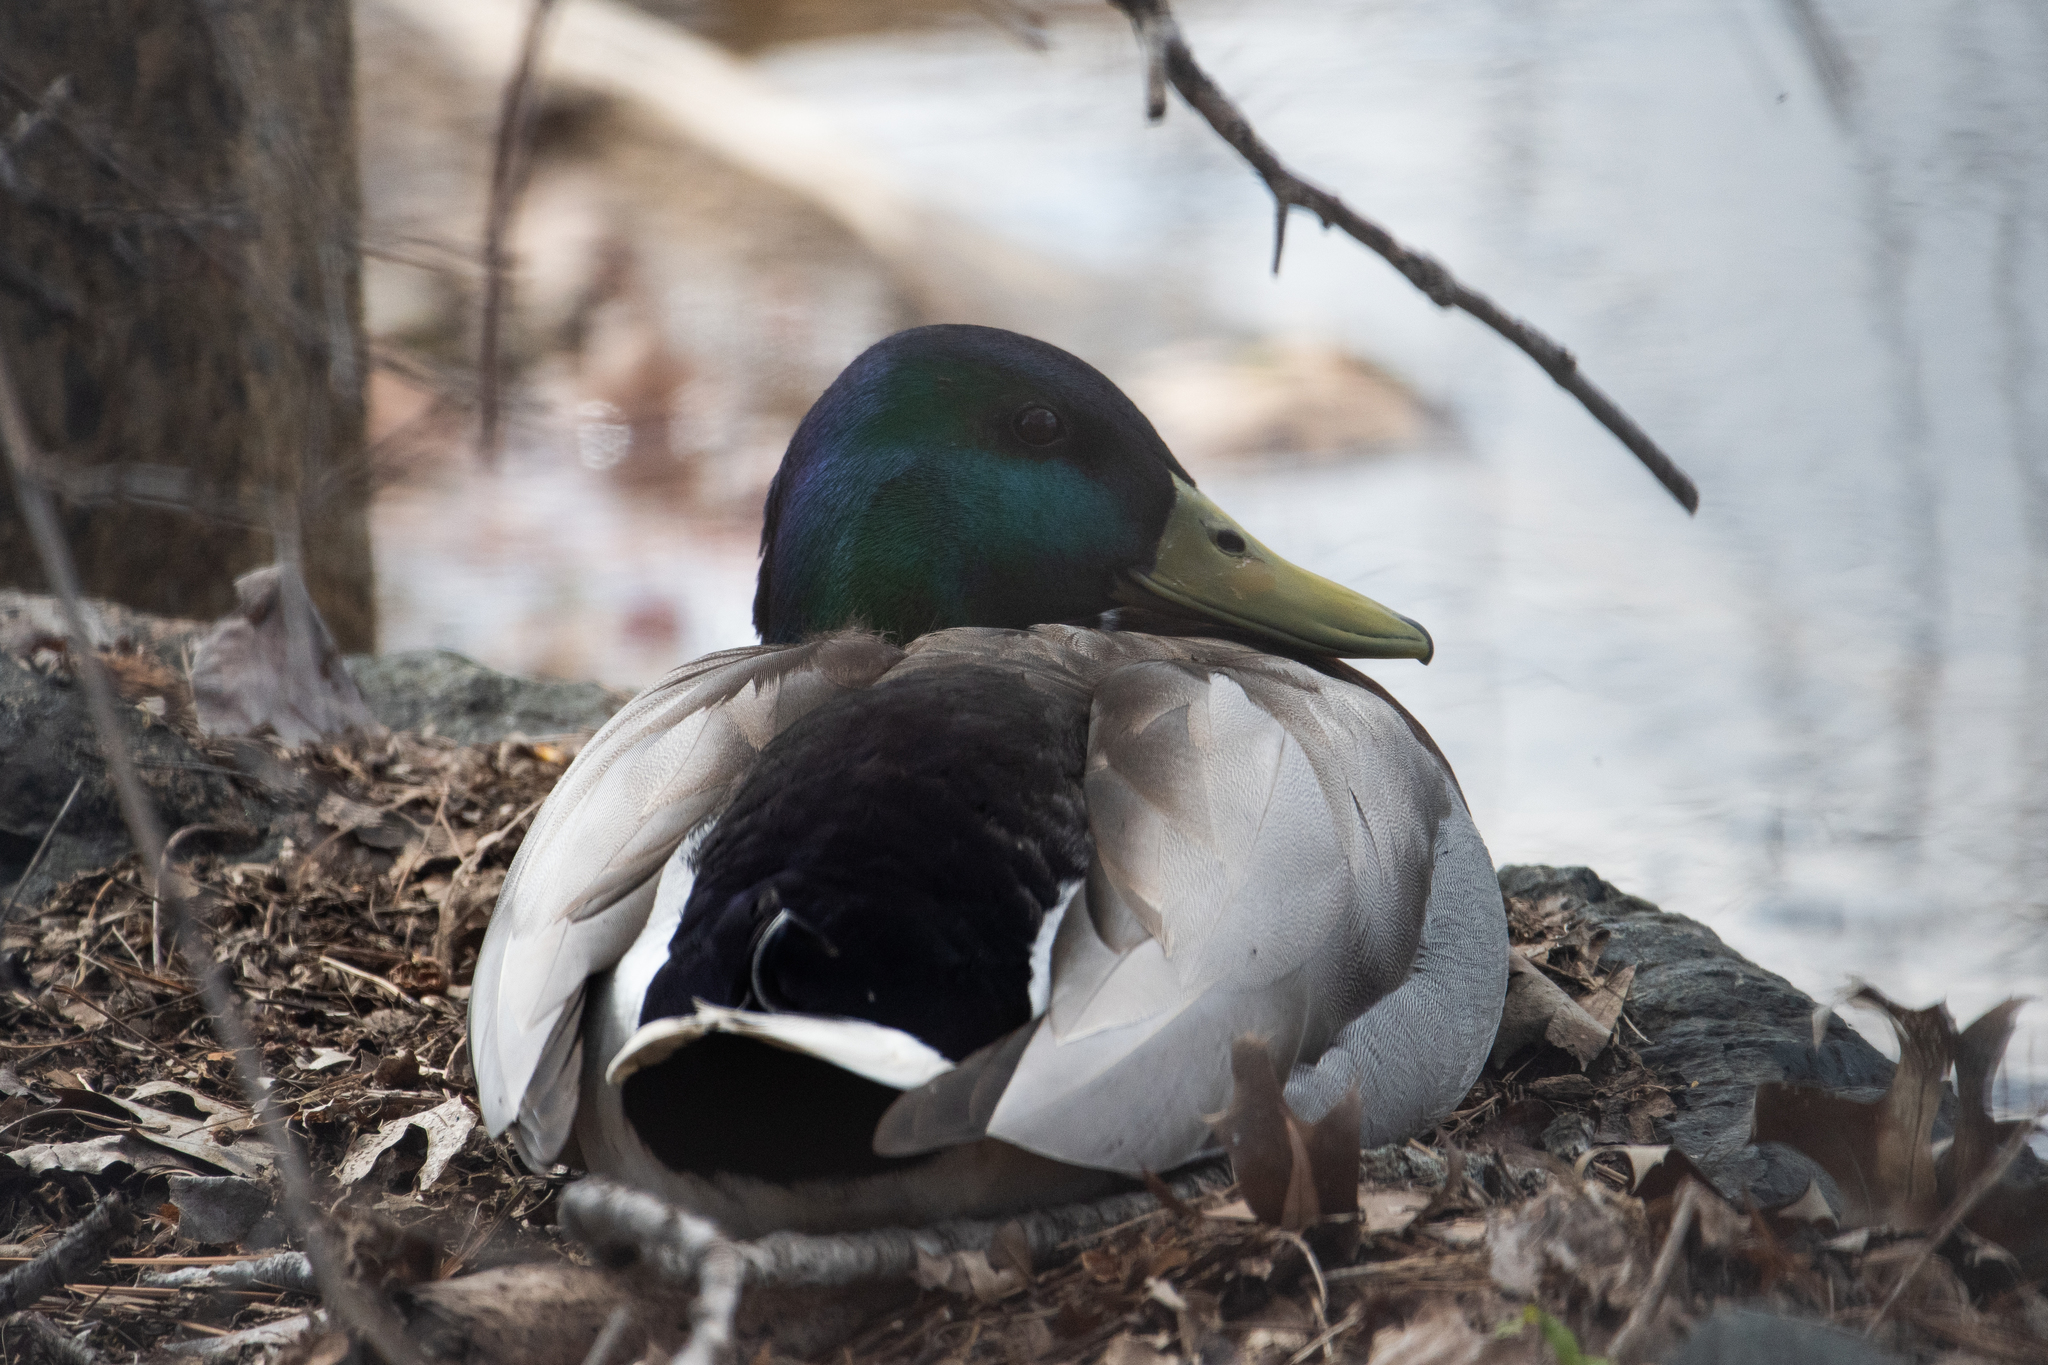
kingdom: Animalia
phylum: Chordata
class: Aves
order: Anseriformes
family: Anatidae
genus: Anas
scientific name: Anas platyrhynchos
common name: Mallard
